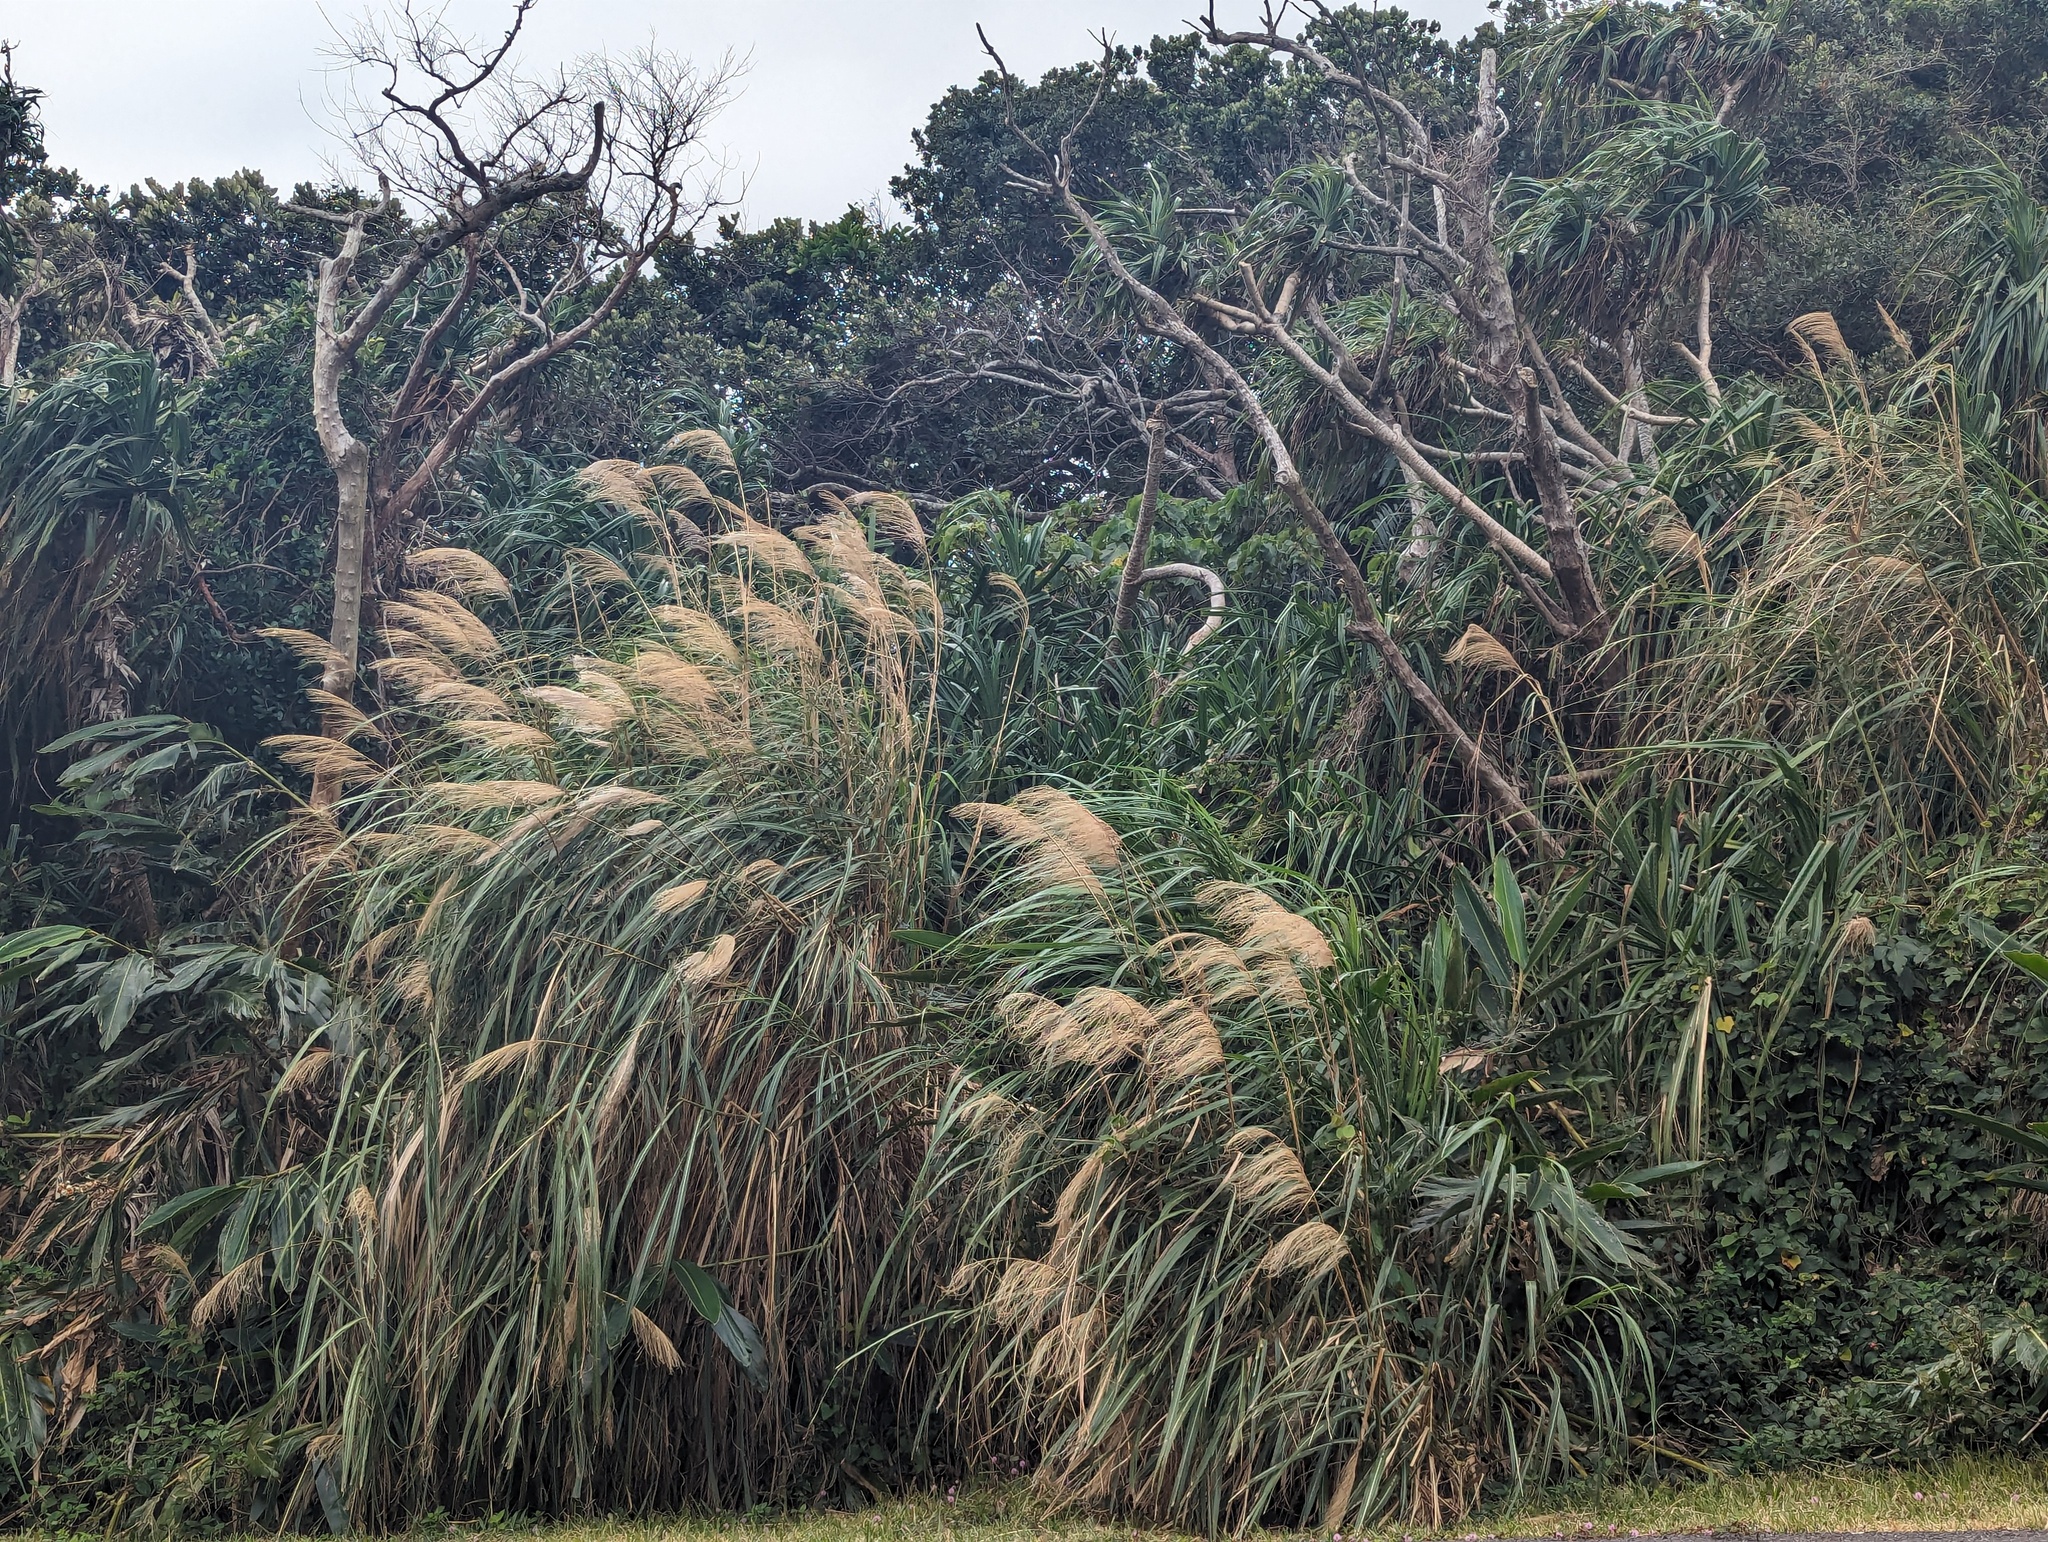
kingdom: Plantae
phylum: Tracheophyta
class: Liliopsida
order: Poales
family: Poaceae
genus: Miscanthus
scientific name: Miscanthus sinensis
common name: Chinese silvergrass
